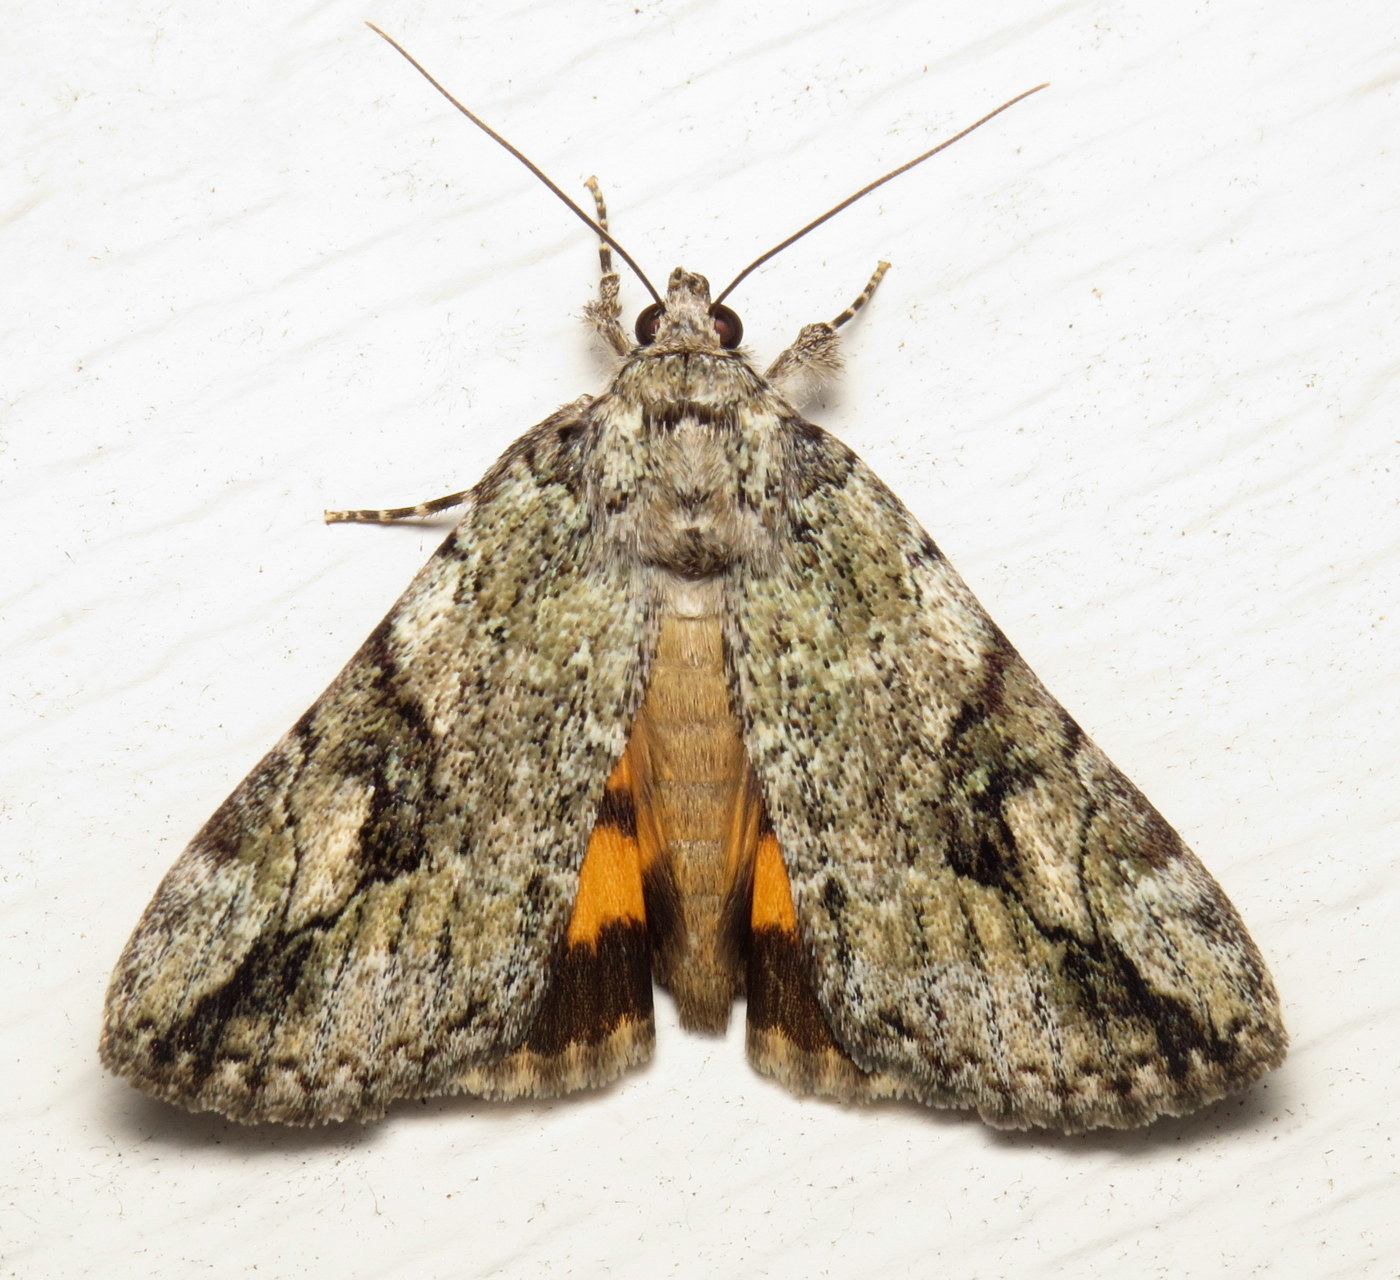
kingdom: Animalia
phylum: Arthropoda
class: Insecta
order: Lepidoptera
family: Erebidae
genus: Catocala
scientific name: Catocala micronympha
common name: Little nymph underwing
